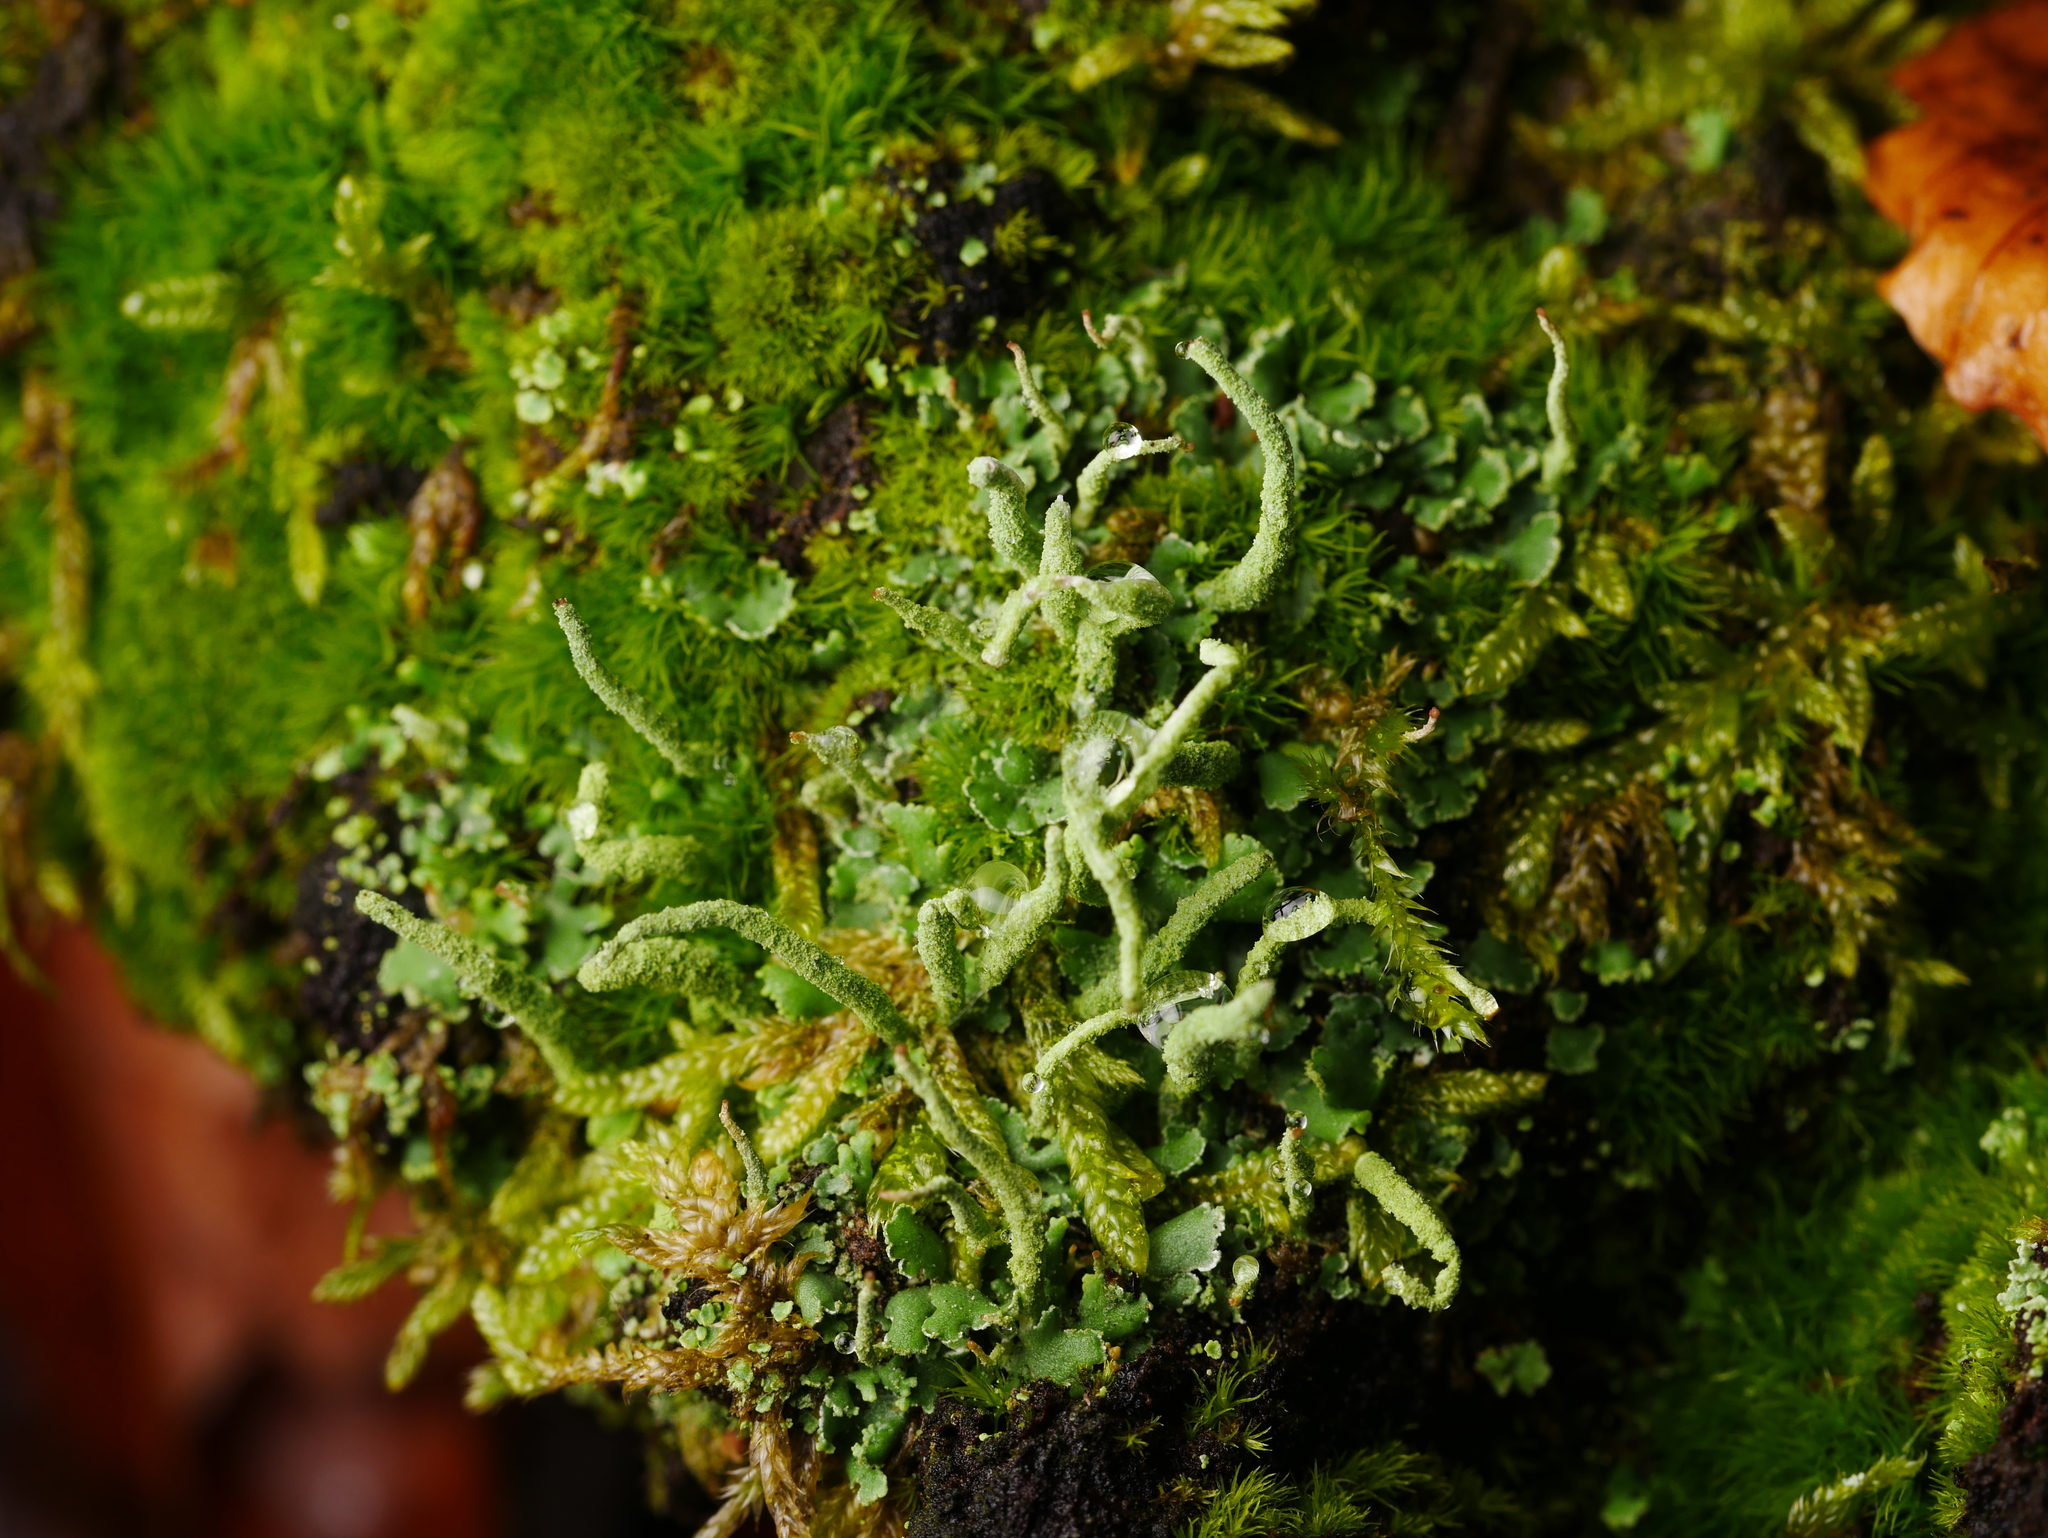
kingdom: Fungi
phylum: Ascomycota
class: Lecanoromycetes
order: Lecanorales
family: Cladoniaceae
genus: Cladonia
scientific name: Cladonia coniocraea
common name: Common powderhorn
